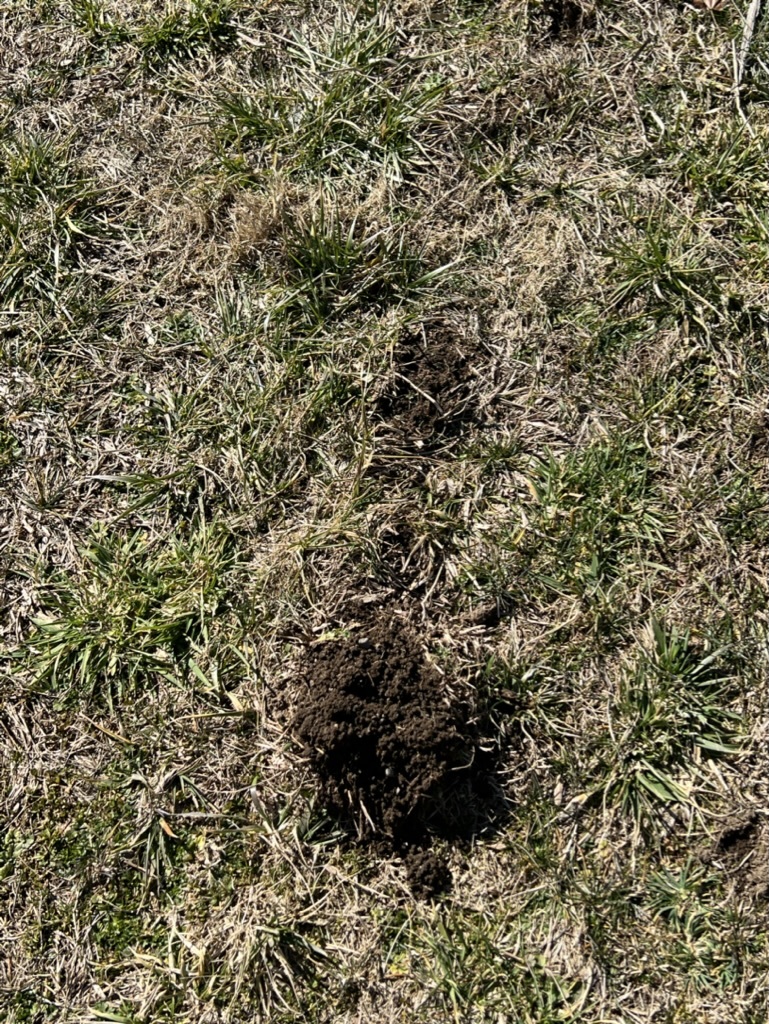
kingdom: Animalia
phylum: Chordata
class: Mammalia
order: Soricomorpha
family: Talpidae
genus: Scalopus
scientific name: Scalopus aquaticus
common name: Eastern mole
